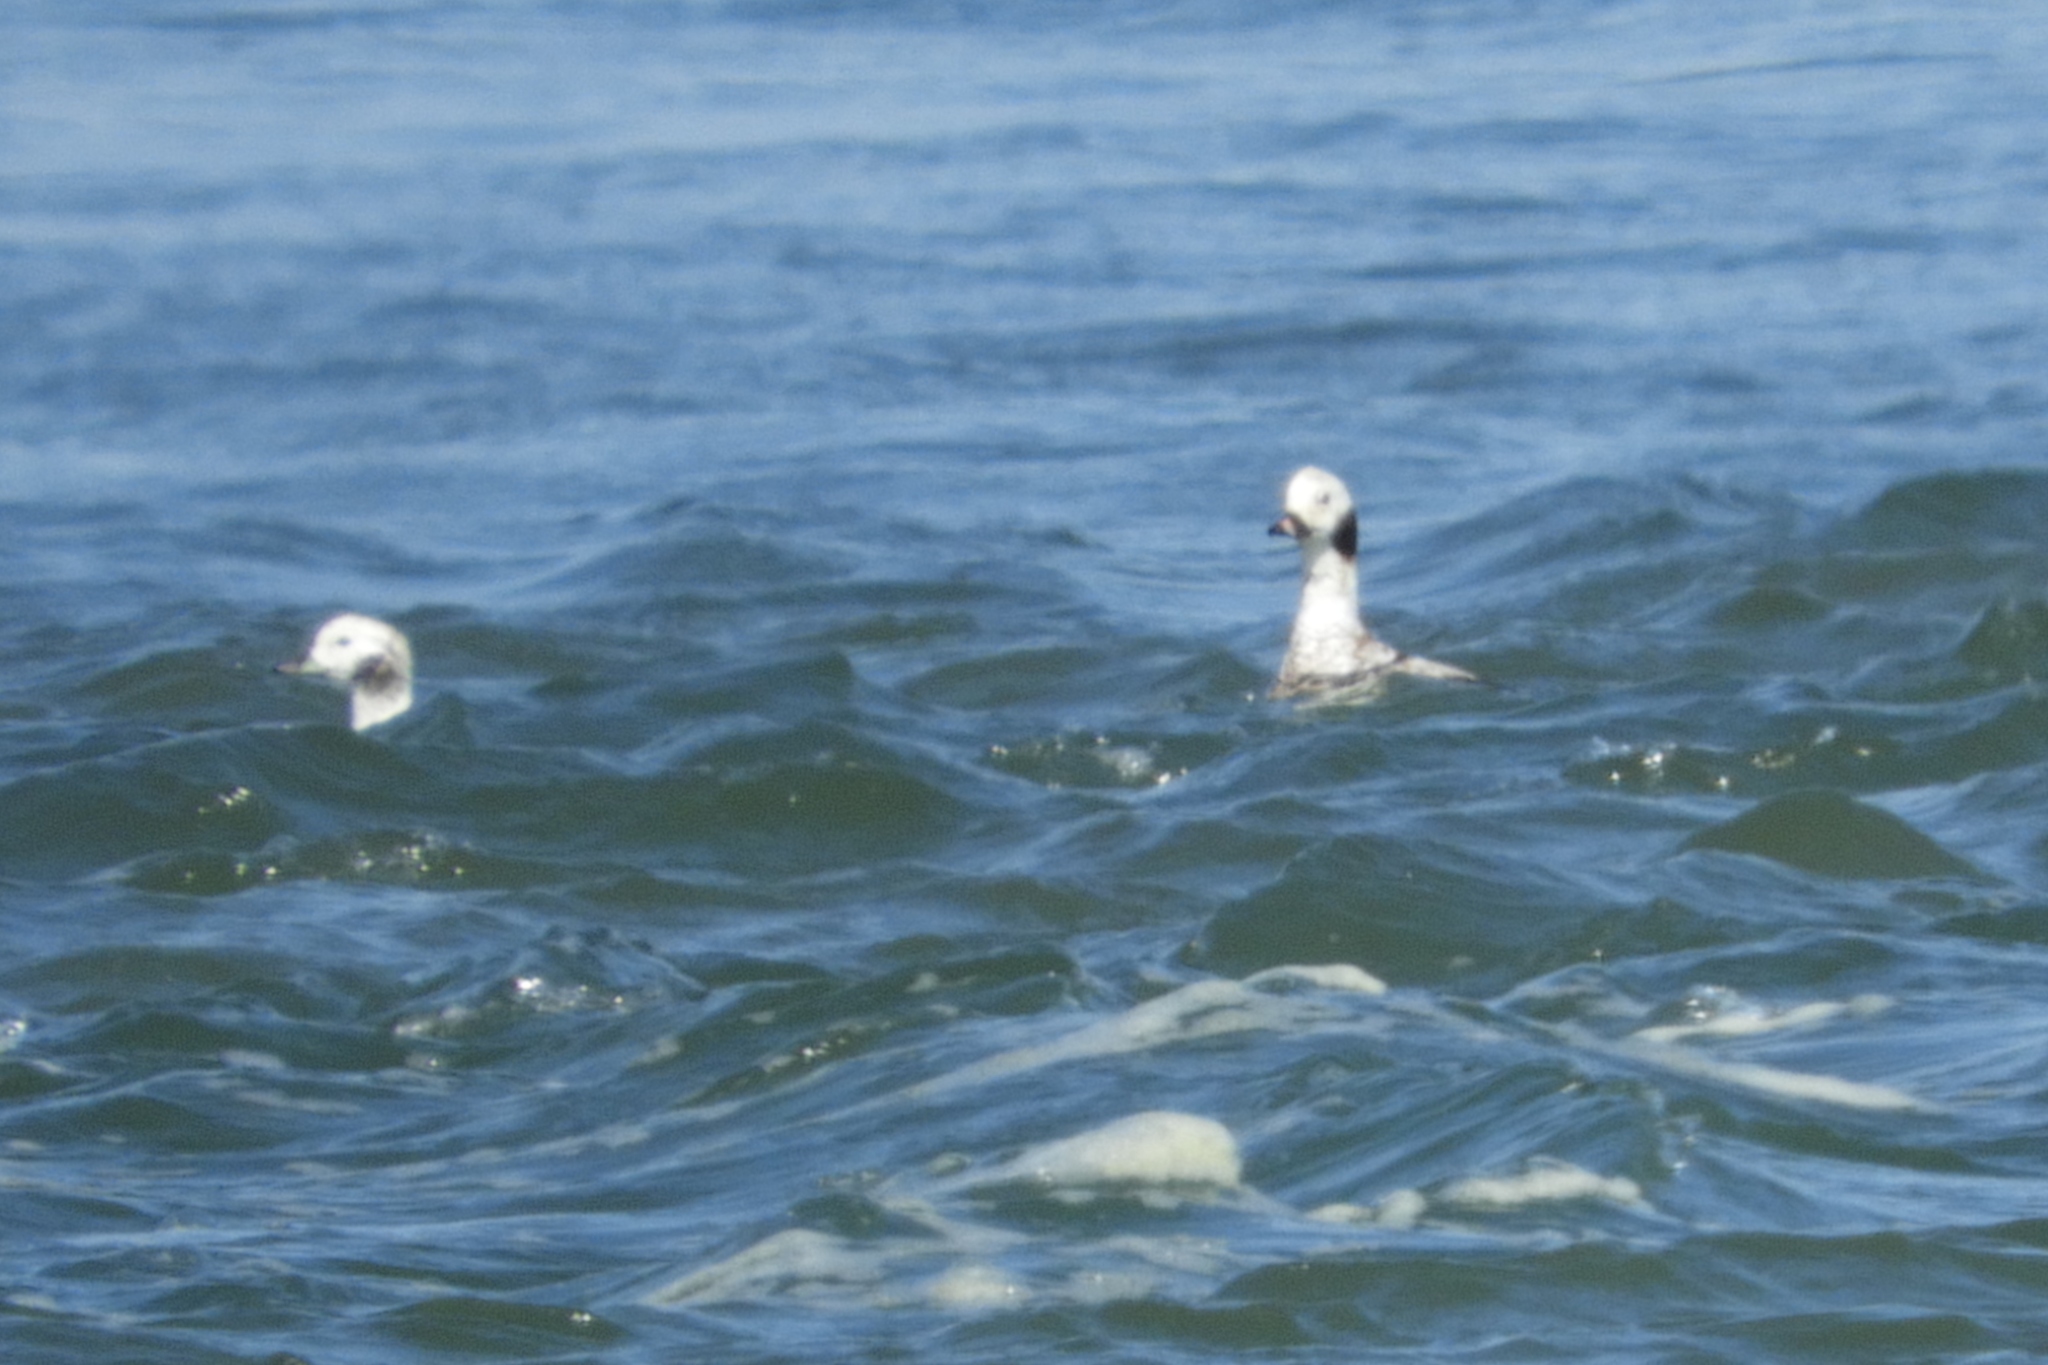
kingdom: Animalia
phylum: Chordata
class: Aves
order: Anseriformes
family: Anatidae
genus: Clangula
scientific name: Clangula hyemalis
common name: Long-tailed duck
